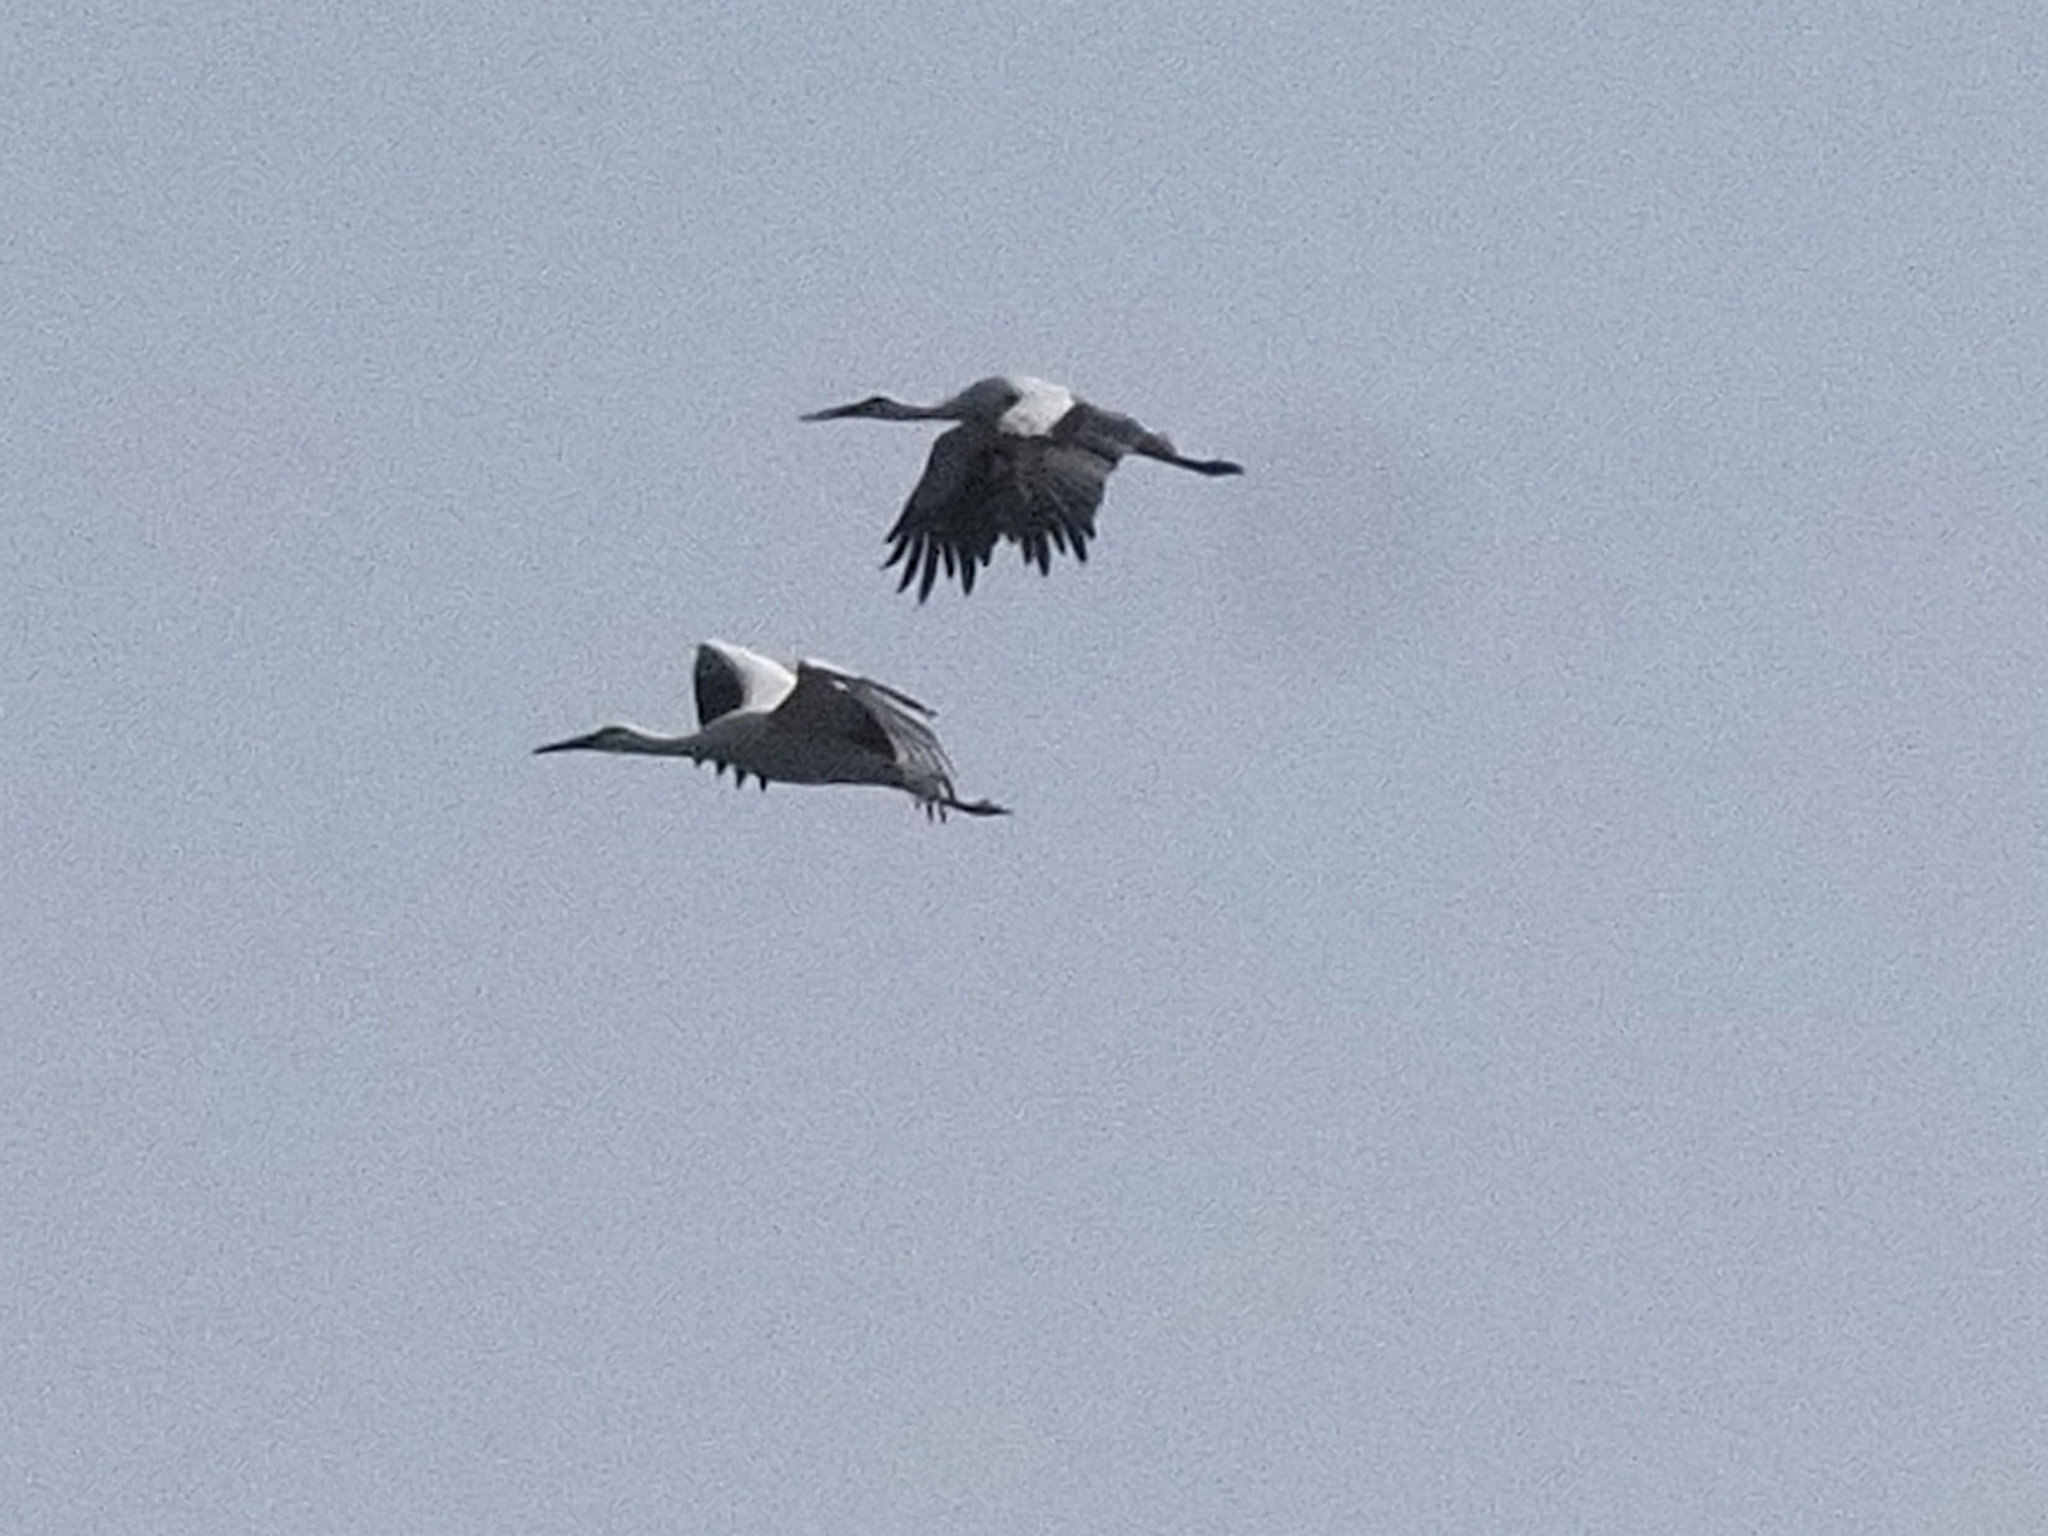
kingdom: Animalia
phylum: Chordata
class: Aves
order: Ciconiiformes
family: Ciconiidae
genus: Ciconia
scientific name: Ciconia ciconia
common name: White stork
